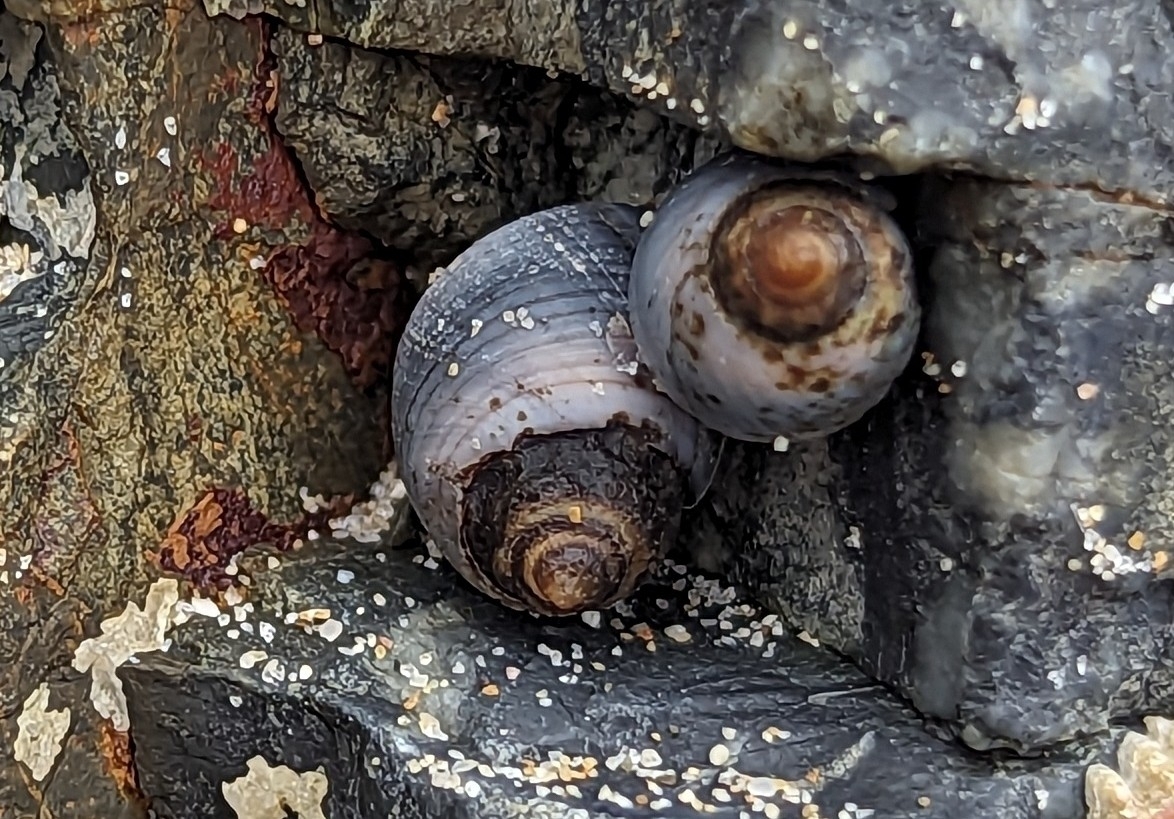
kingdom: Animalia
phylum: Mollusca
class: Gastropoda
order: Littorinimorpha
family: Littorinidae
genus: Austrolittorina
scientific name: Austrolittorina unifasciata
